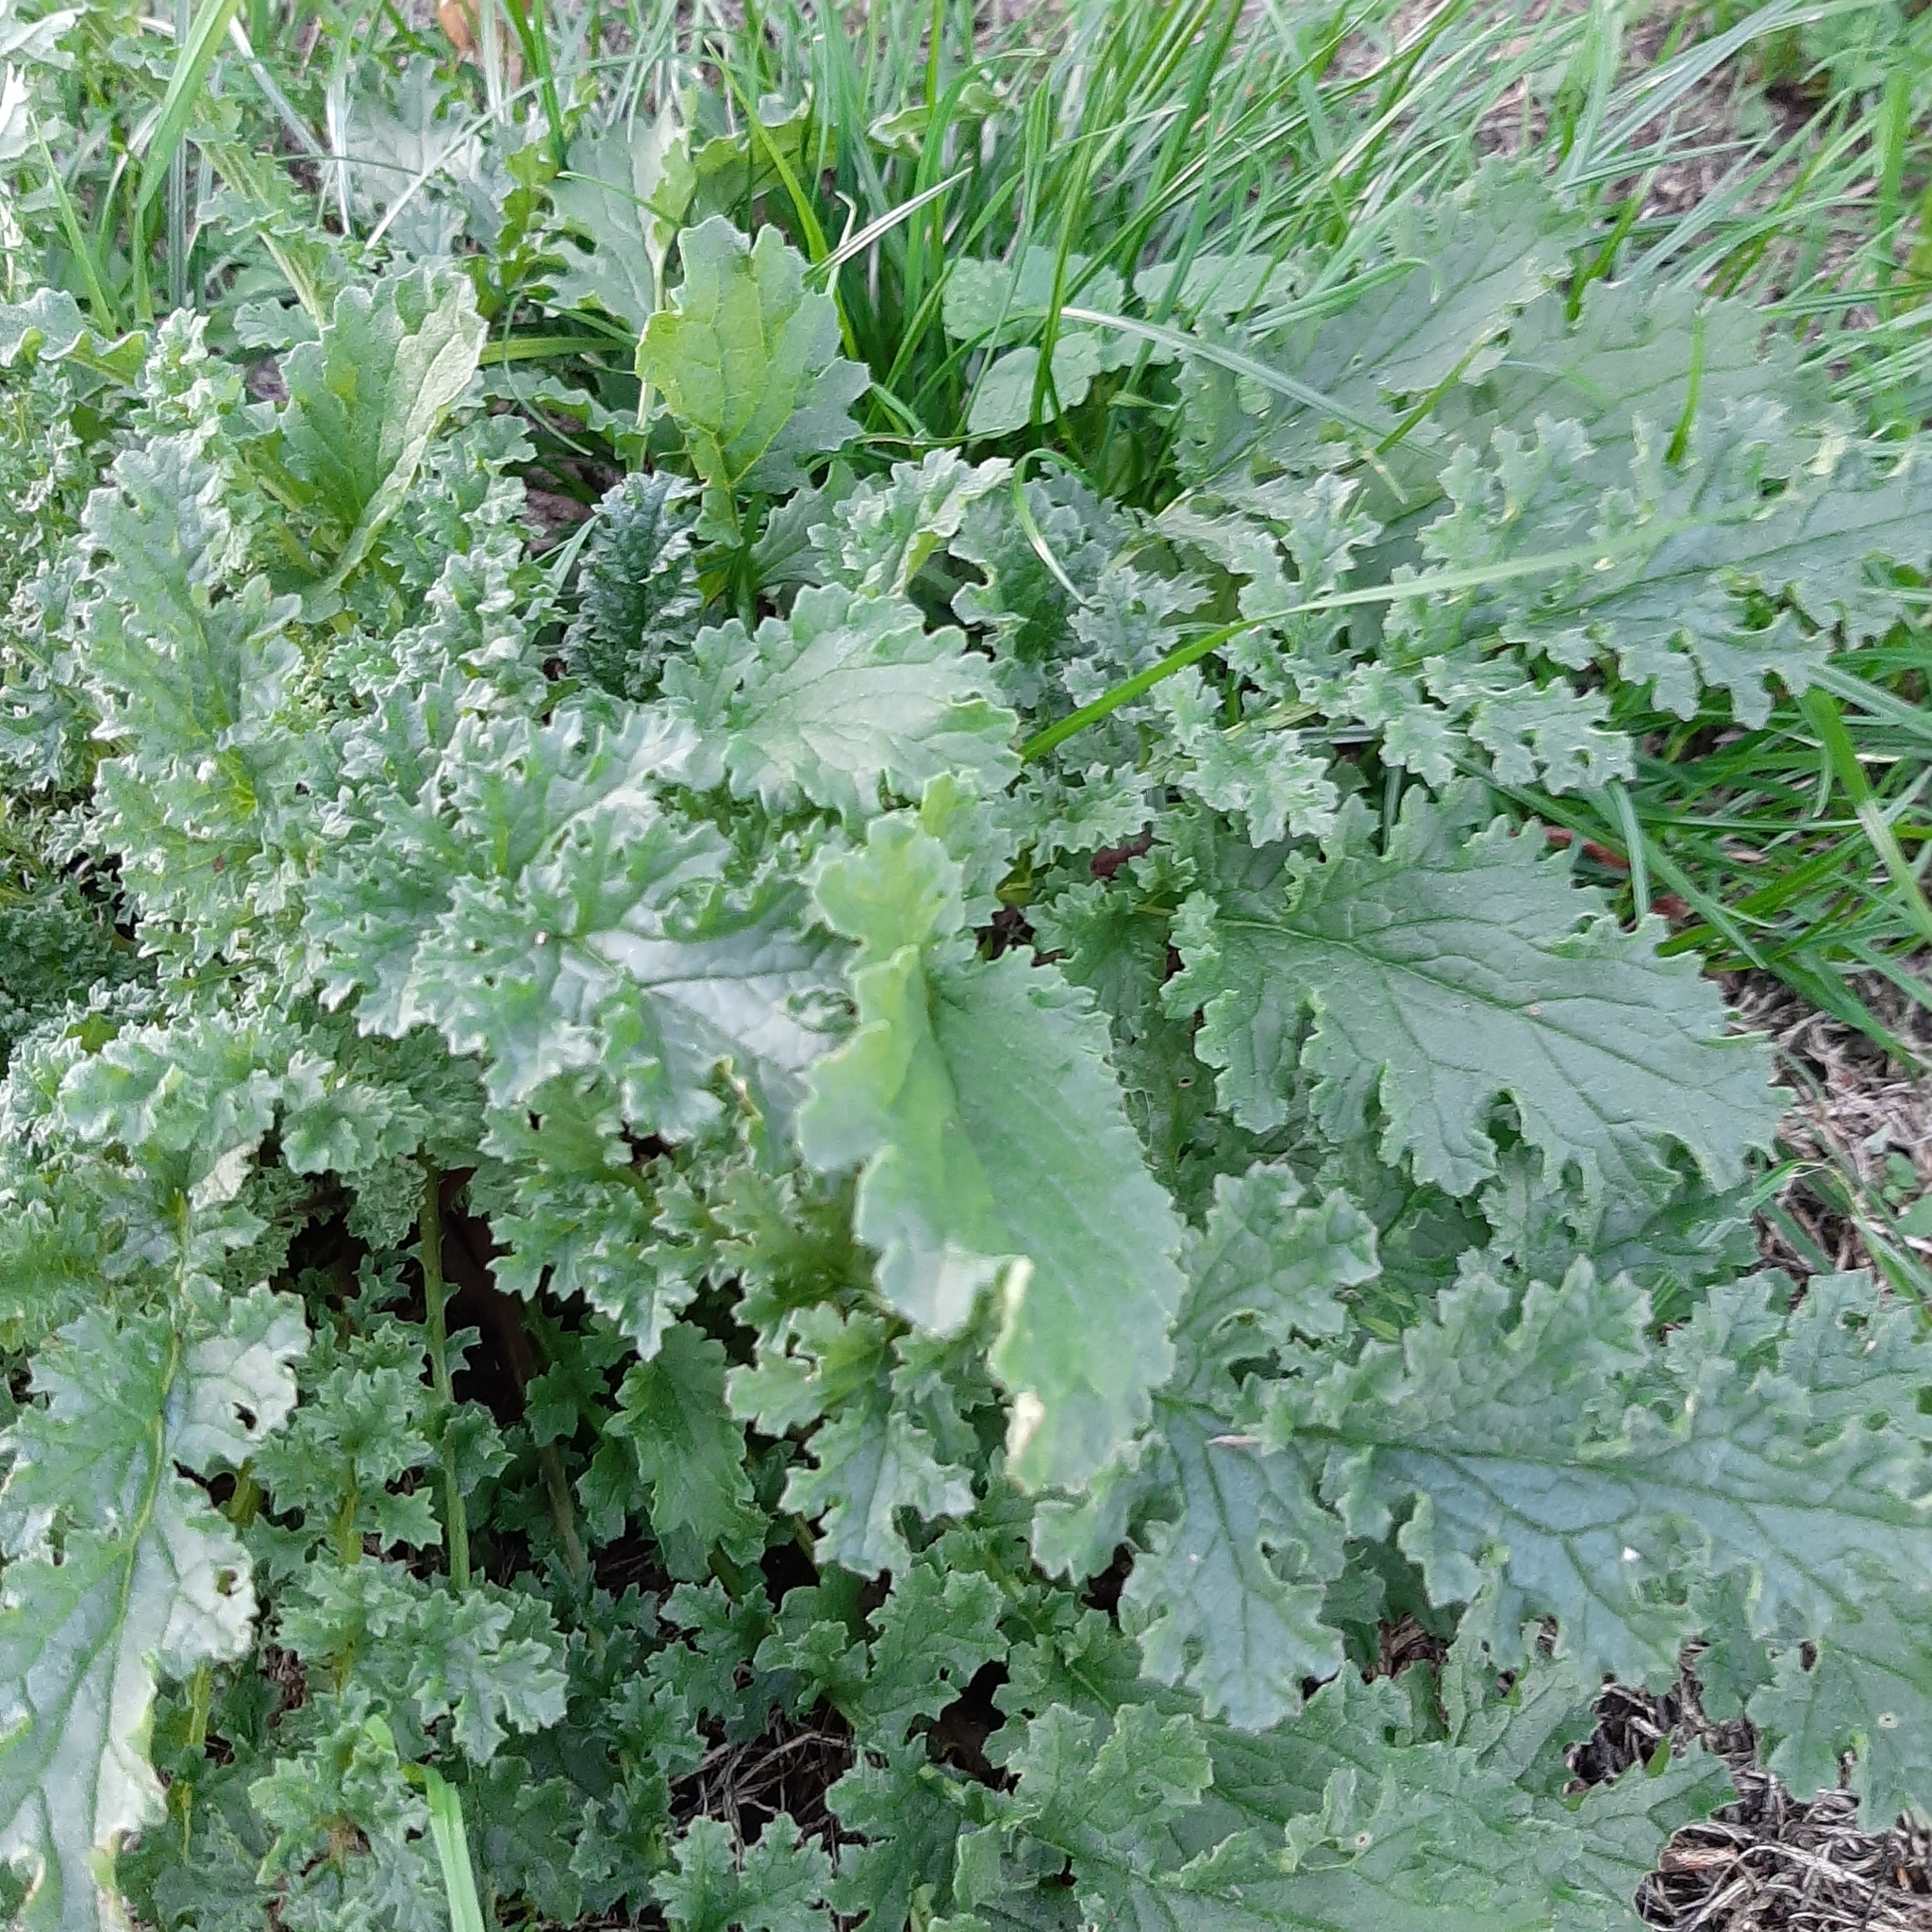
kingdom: Plantae
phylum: Tracheophyta
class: Magnoliopsida
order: Asterales
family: Asteraceae
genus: Jacobaea
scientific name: Jacobaea vulgaris
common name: Stinking willie
